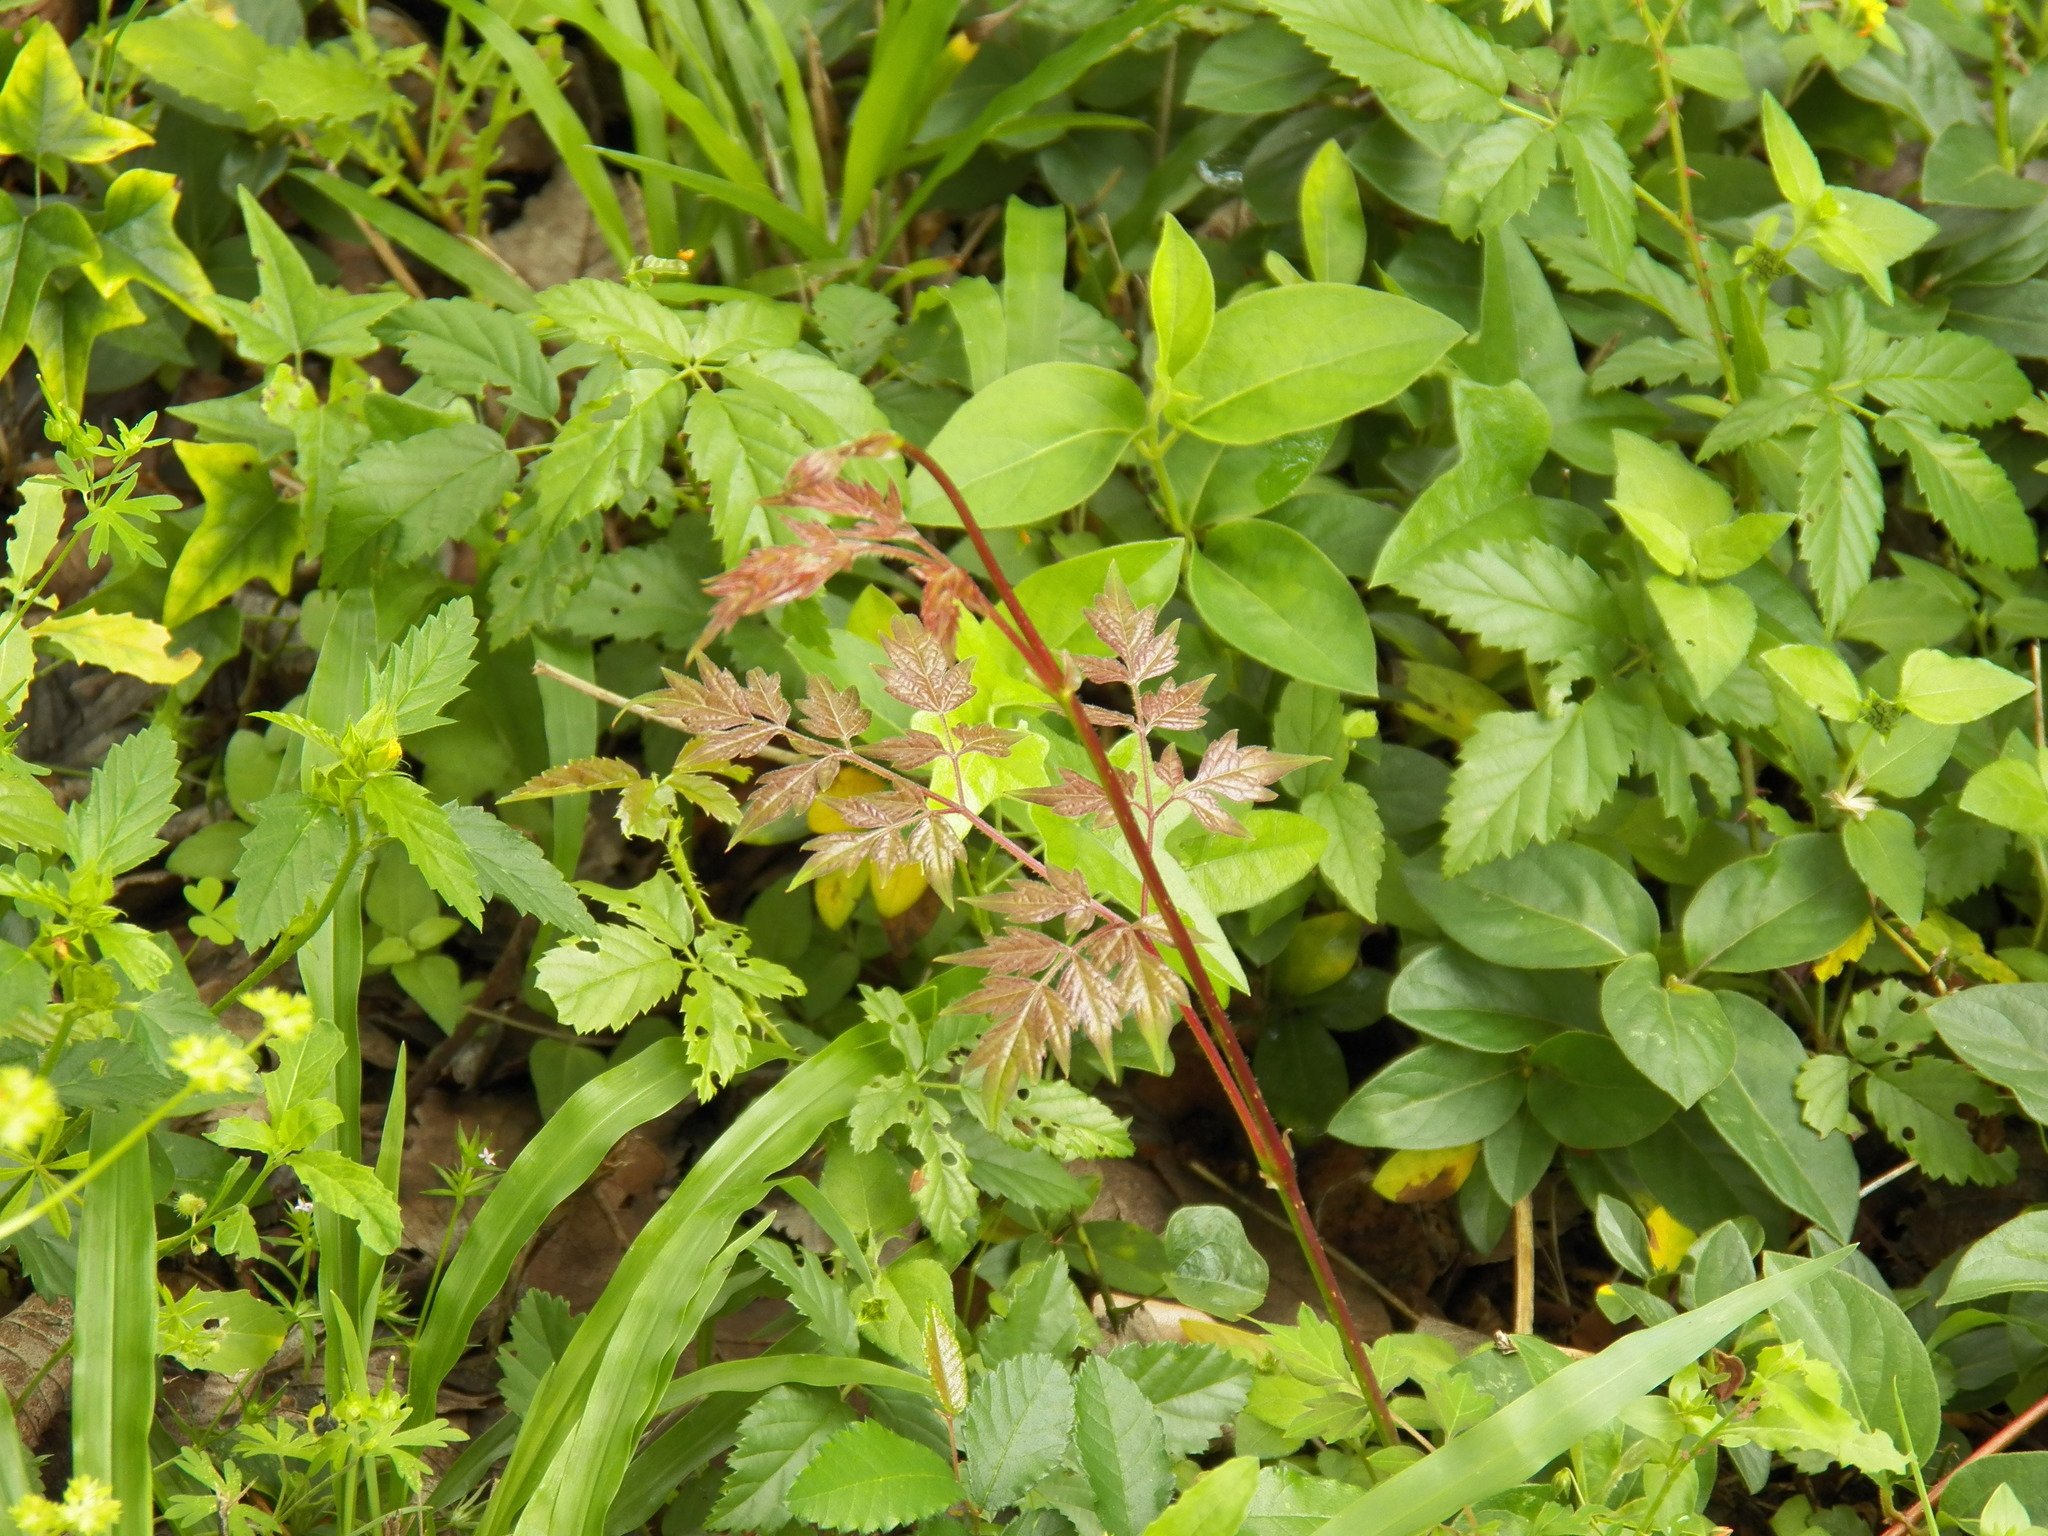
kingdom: Plantae
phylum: Tracheophyta
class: Magnoliopsida
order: Vitales
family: Vitaceae
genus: Nekemias
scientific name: Nekemias arborea
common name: Peppervine
